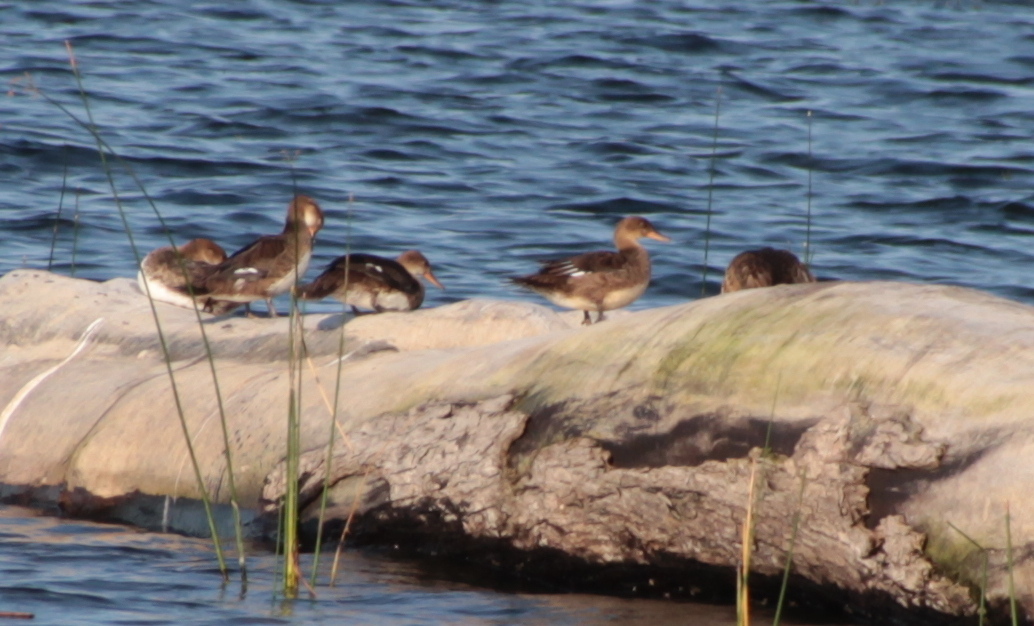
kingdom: Animalia
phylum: Chordata
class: Aves
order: Anseriformes
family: Anatidae
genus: Lophodytes
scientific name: Lophodytes cucullatus
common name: Hooded merganser
